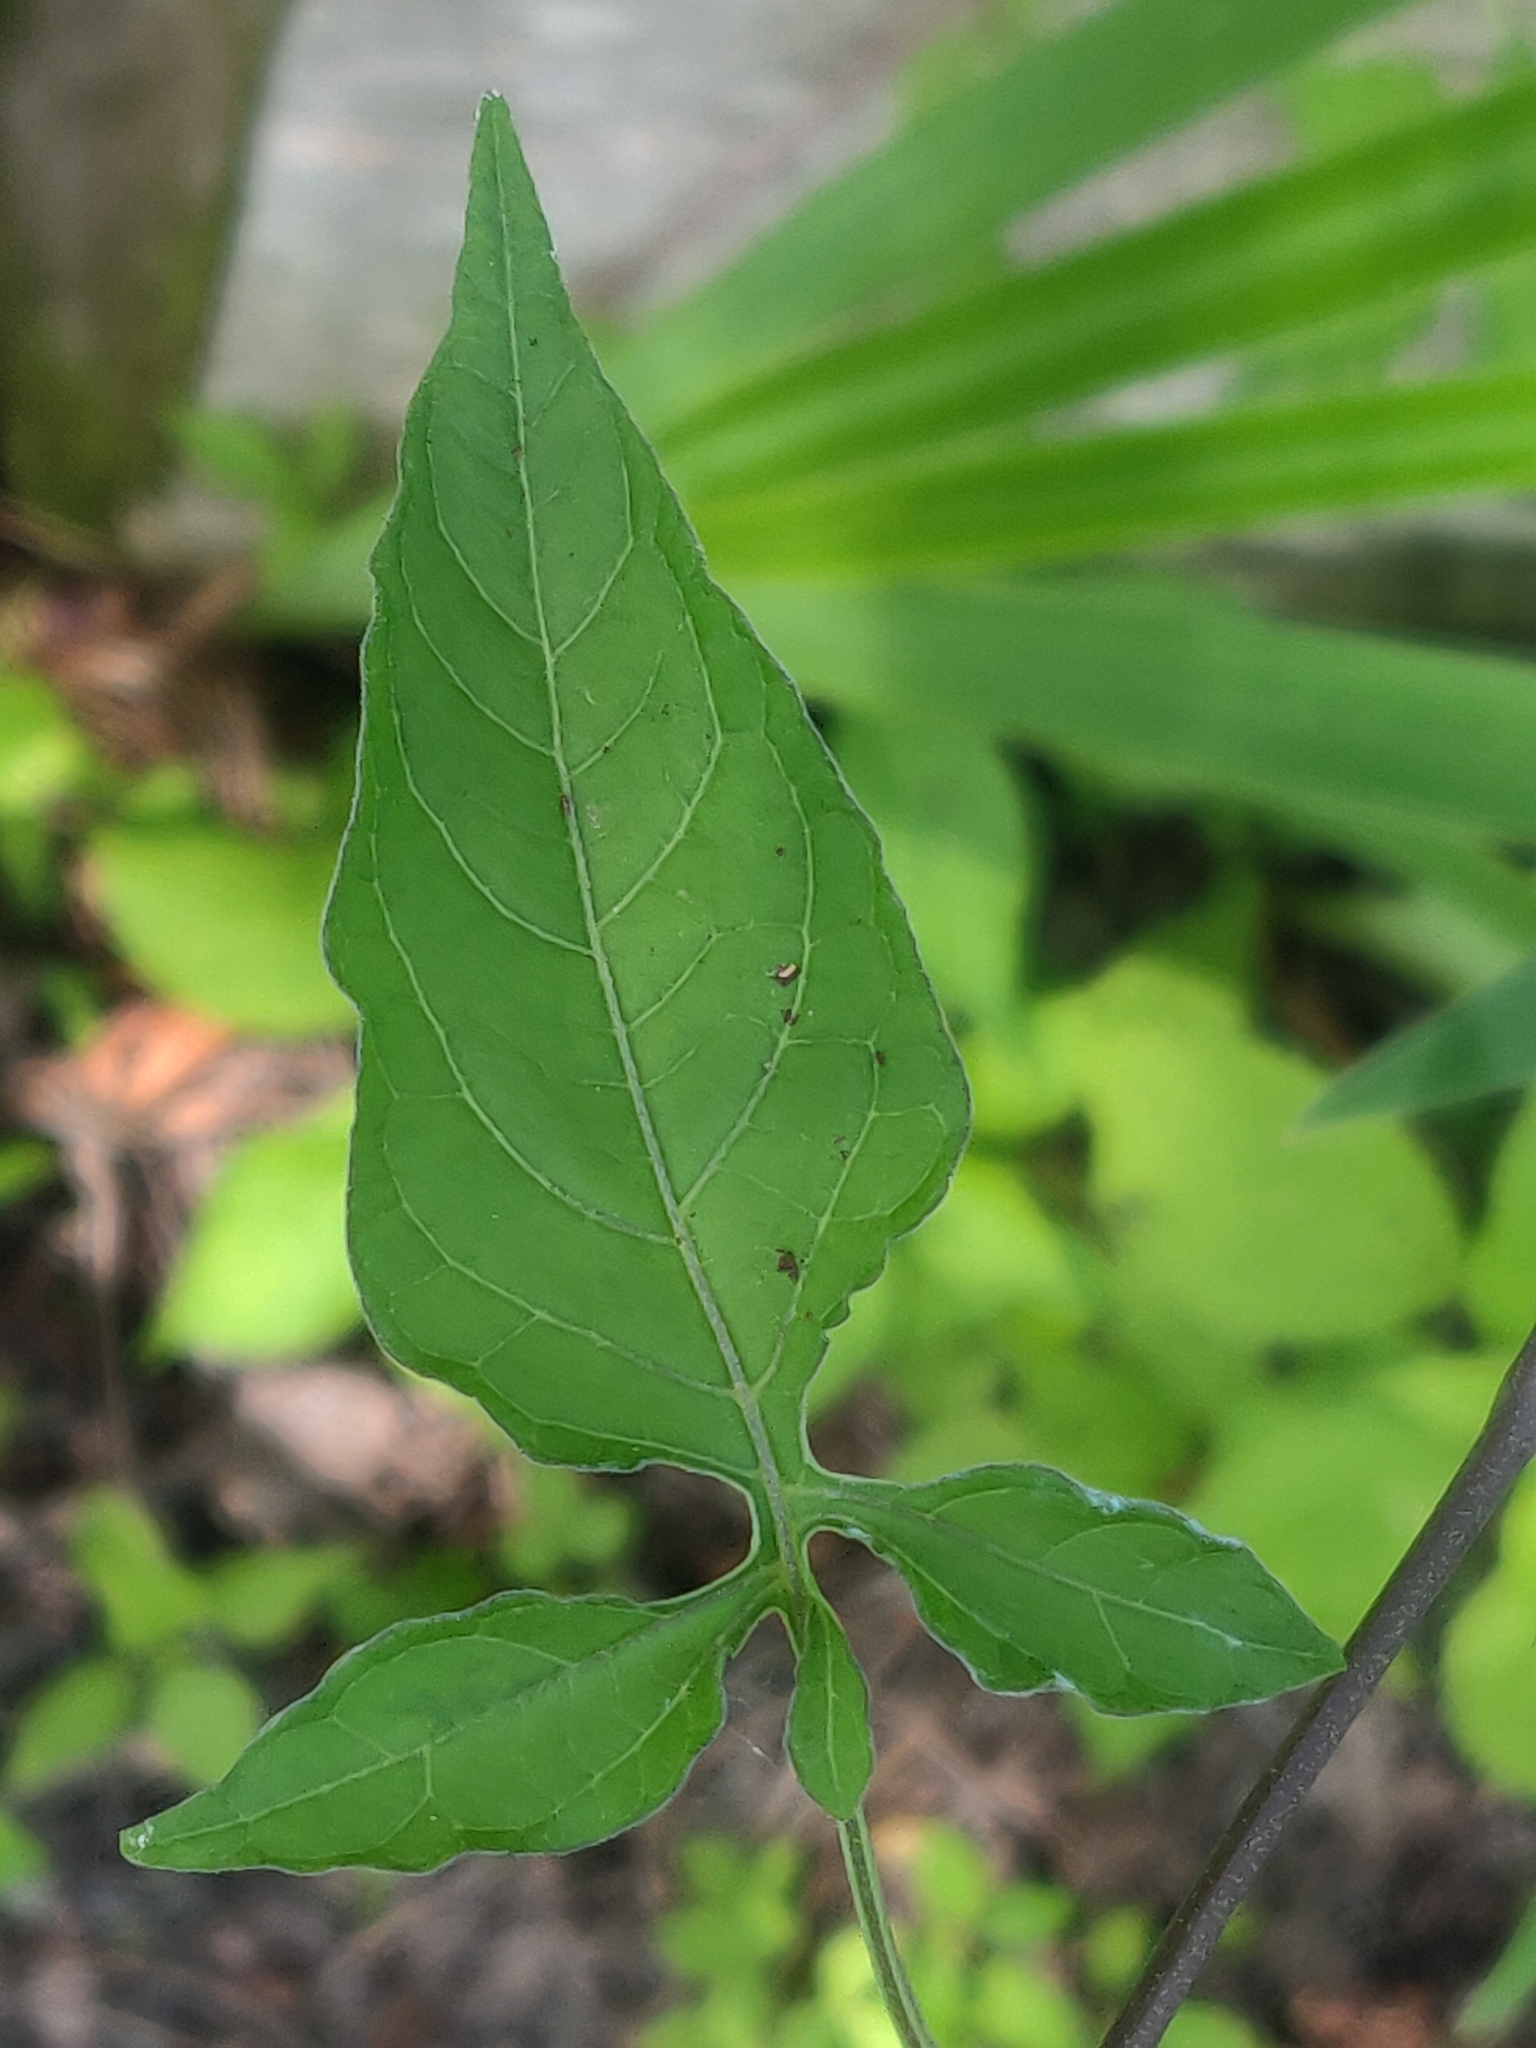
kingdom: Plantae
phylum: Tracheophyta
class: Magnoliopsida
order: Solanales
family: Solanaceae
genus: Solanum
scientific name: Solanum dulcamara
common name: Climbing nightshade
